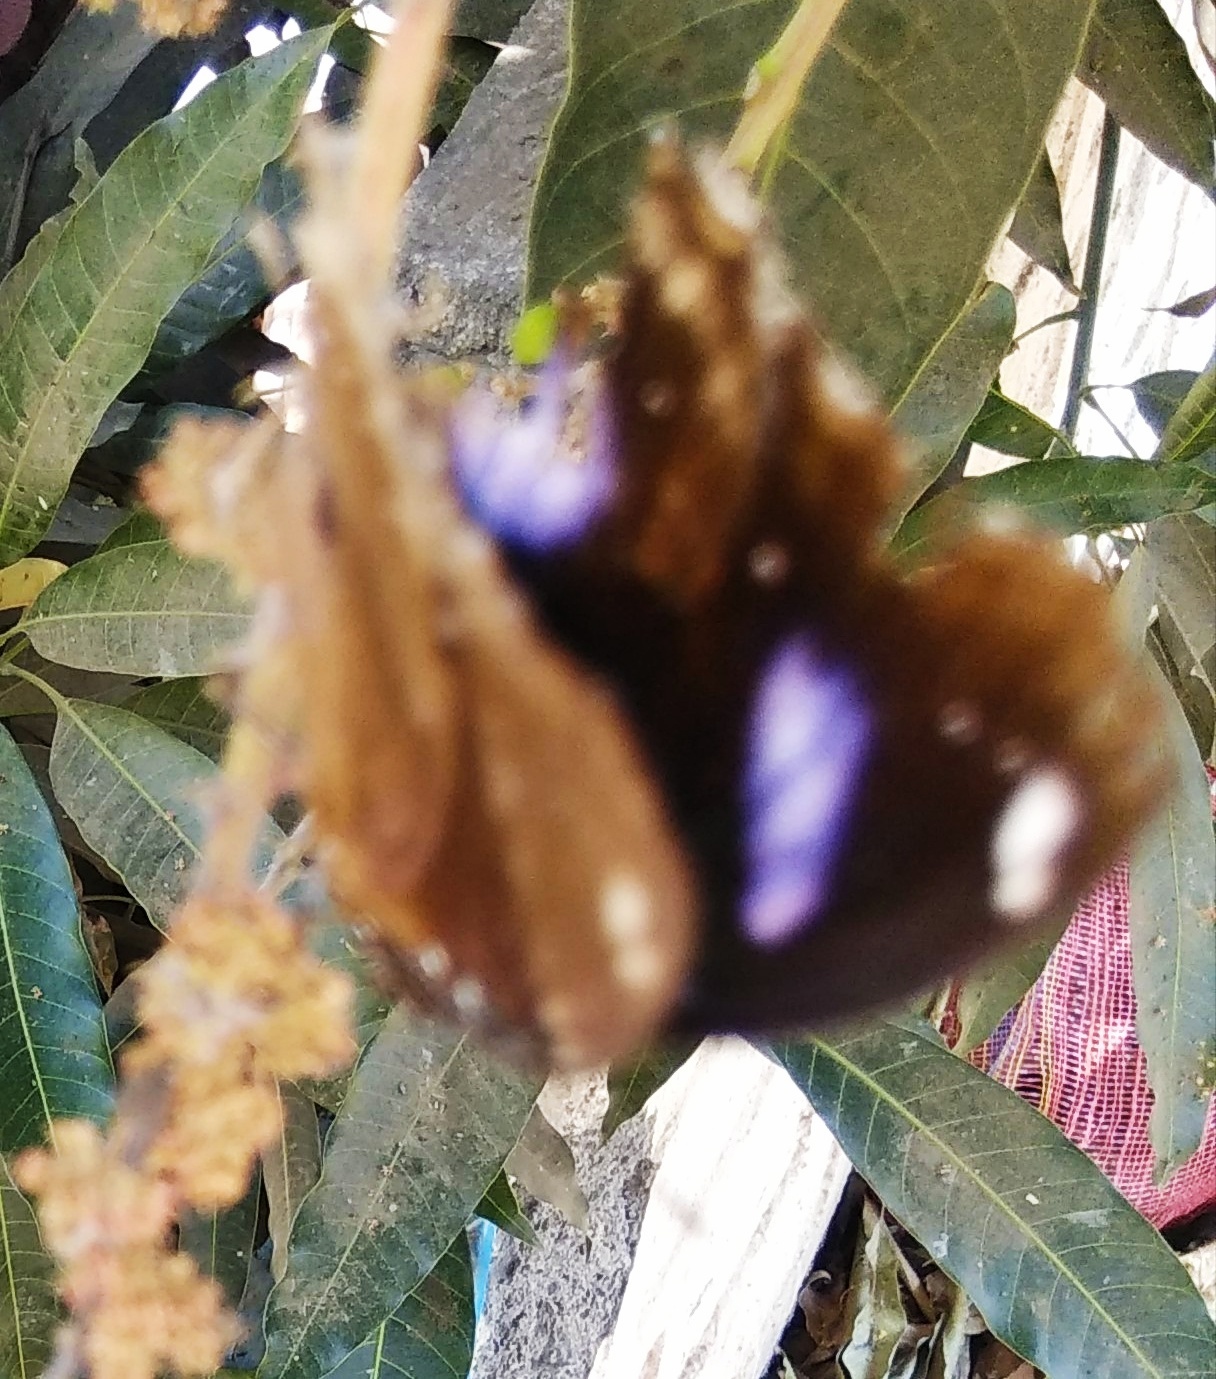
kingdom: Animalia
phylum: Arthropoda
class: Insecta
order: Lepidoptera
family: Nymphalidae
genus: Hypolimnas
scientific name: Hypolimnas bolina
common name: Great eggfly
